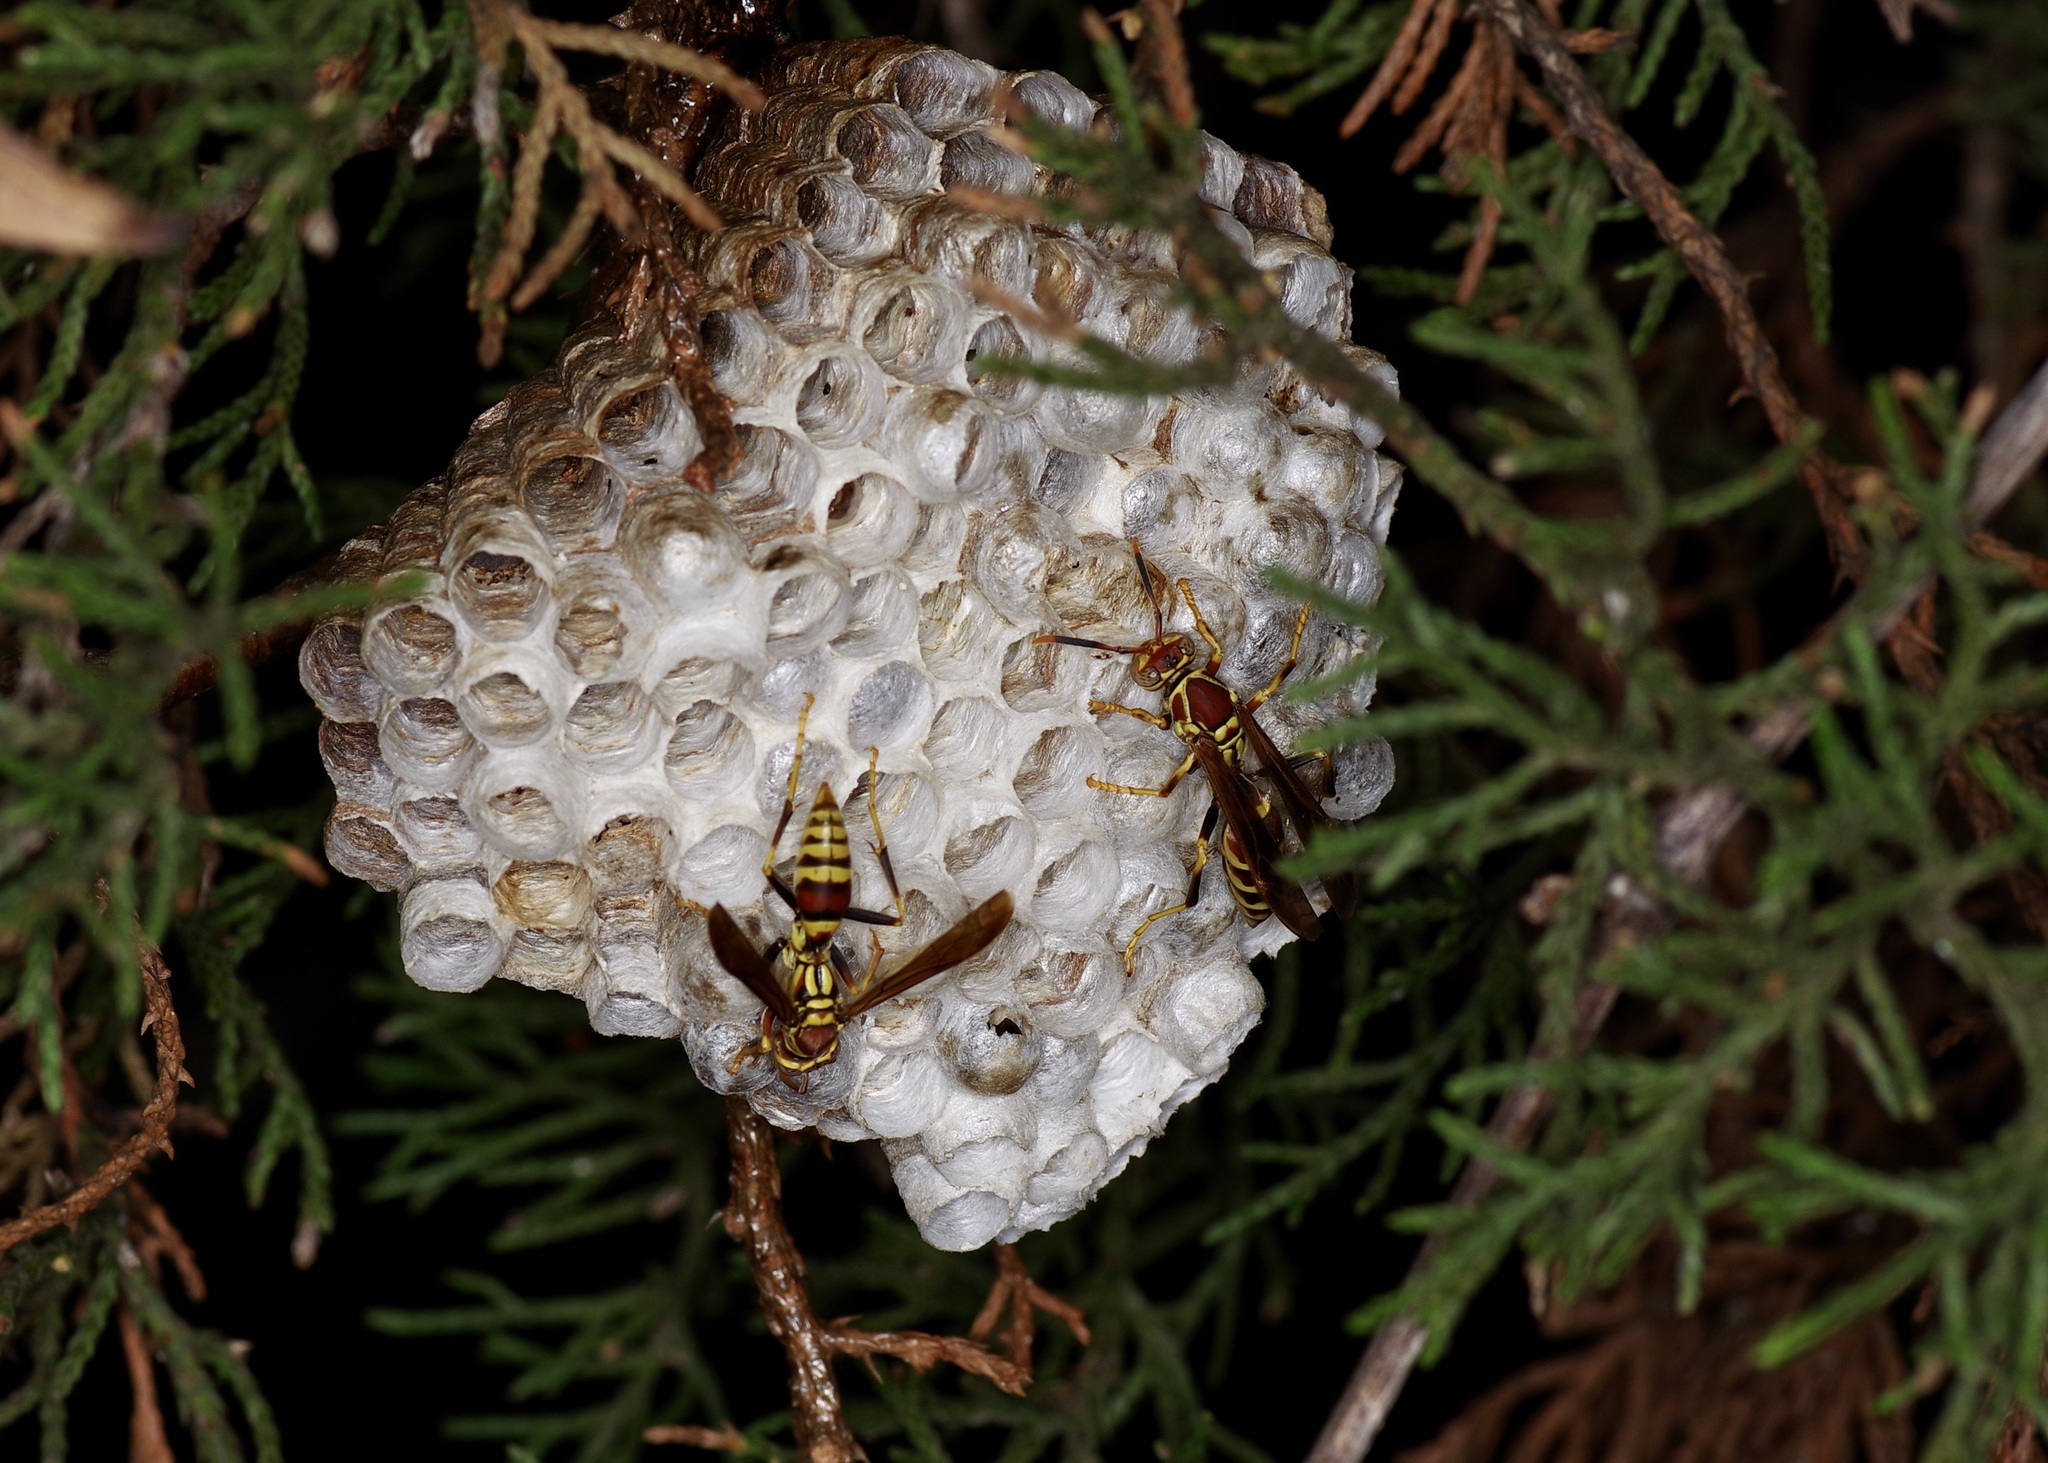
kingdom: Animalia
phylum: Arthropoda
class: Insecta
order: Hymenoptera
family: Eumenidae
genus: Polistes
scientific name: Polistes exclamans
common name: Paper wasp
